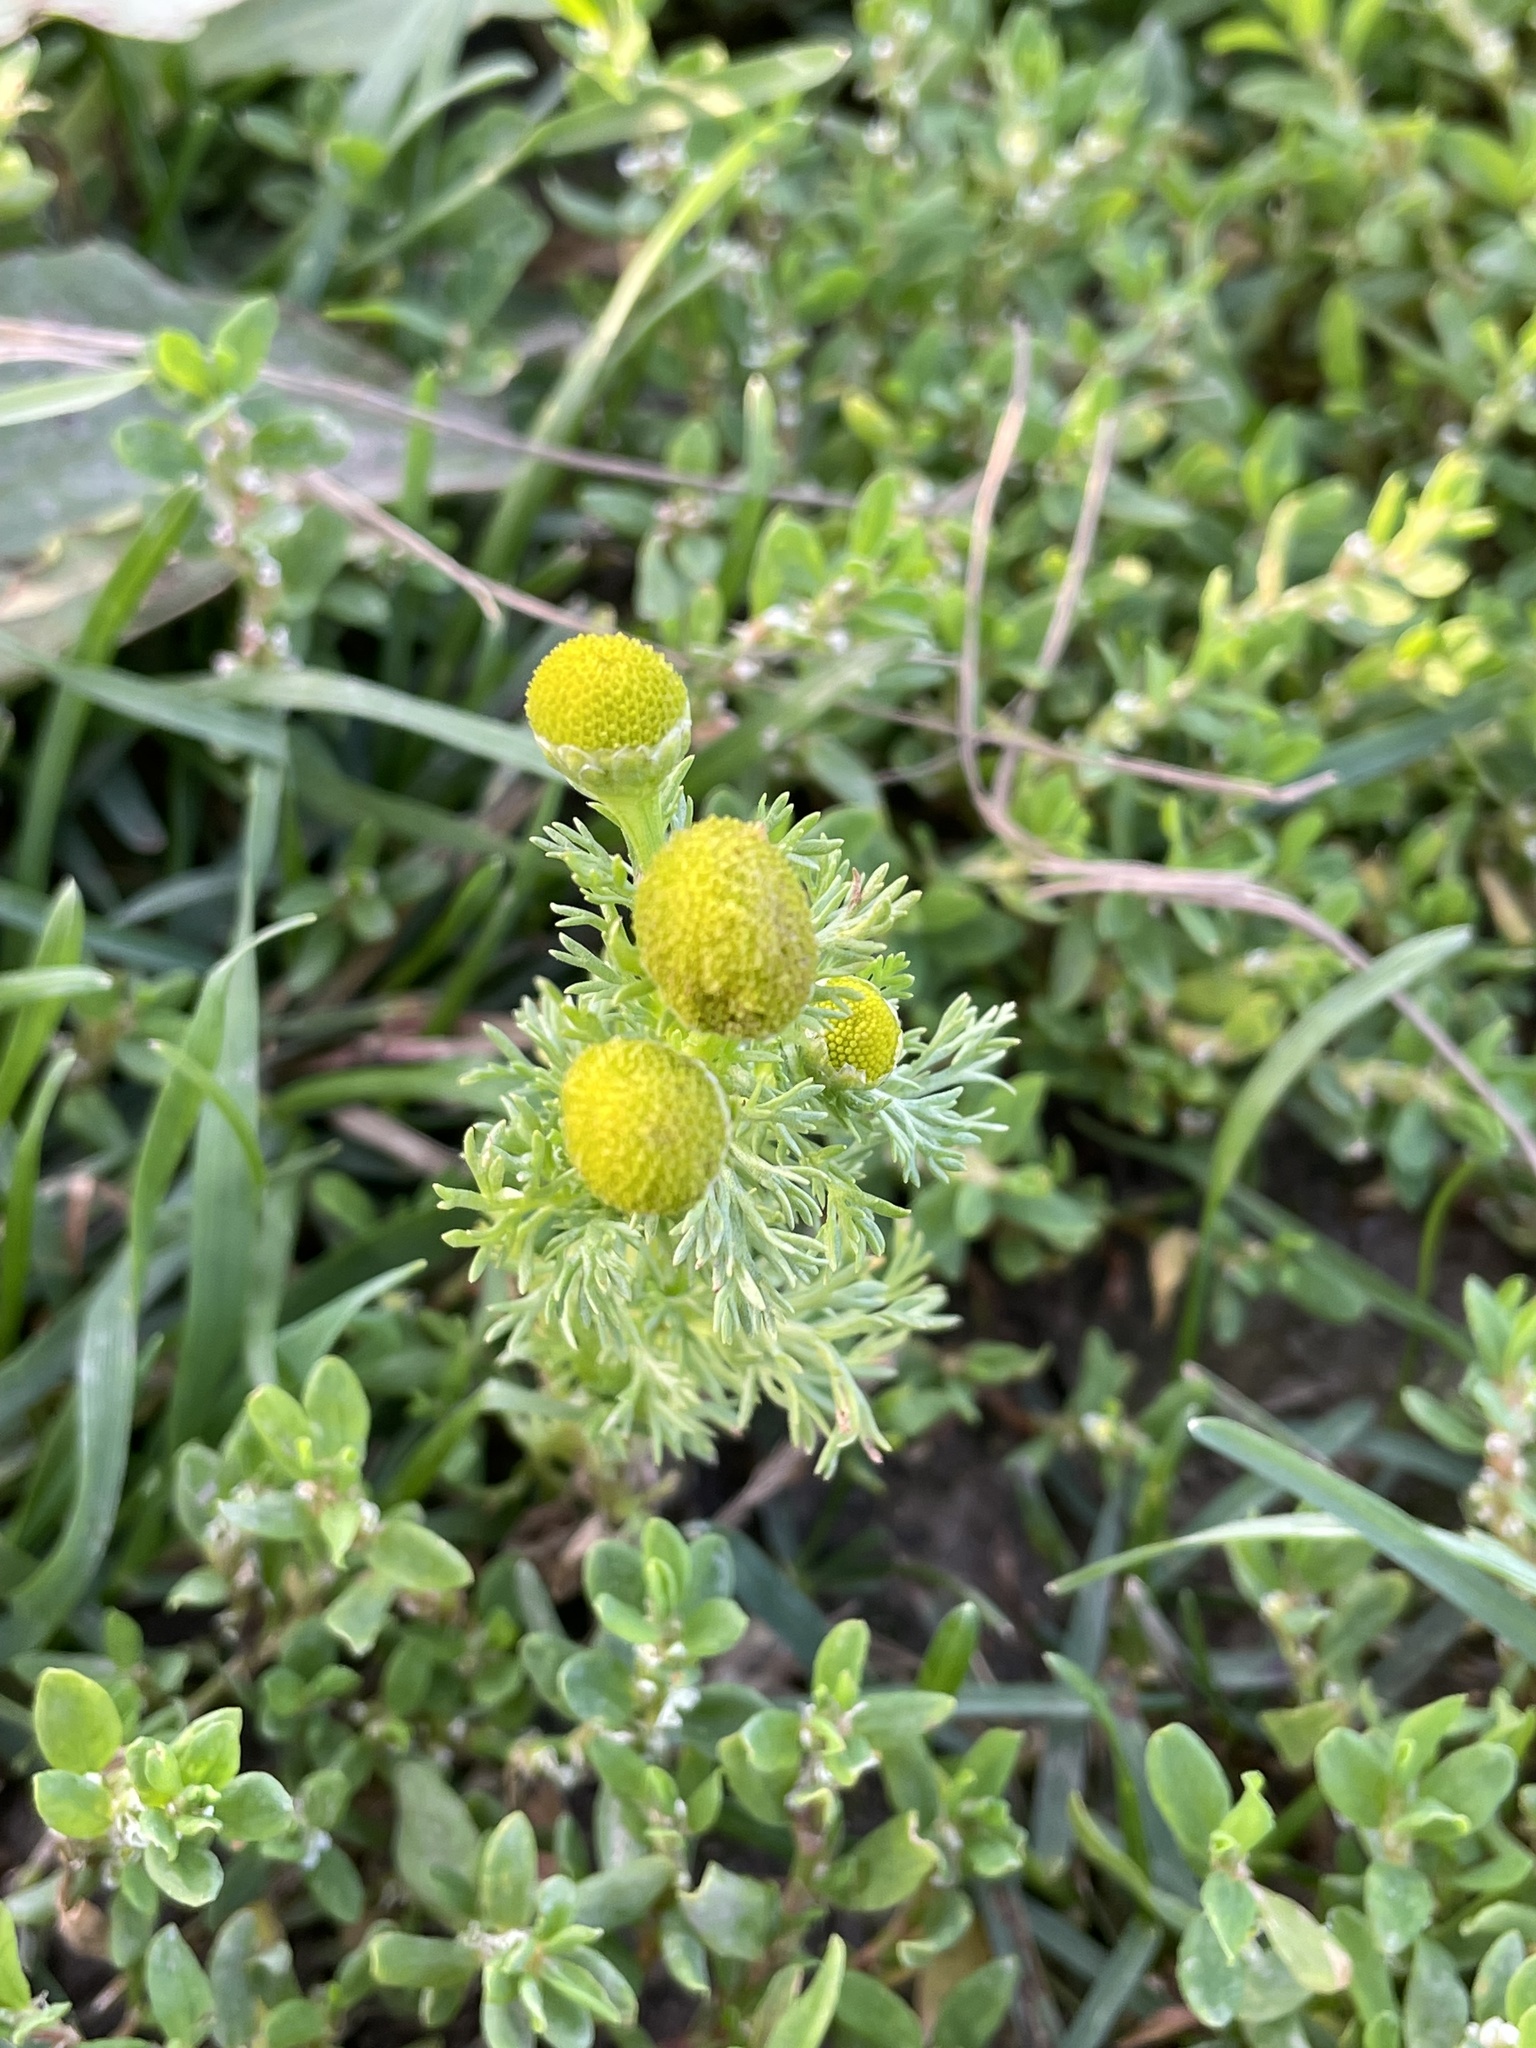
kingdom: Plantae
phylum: Tracheophyta
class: Magnoliopsida
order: Asterales
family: Asteraceae
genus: Matricaria
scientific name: Matricaria discoidea
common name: Disc mayweed
